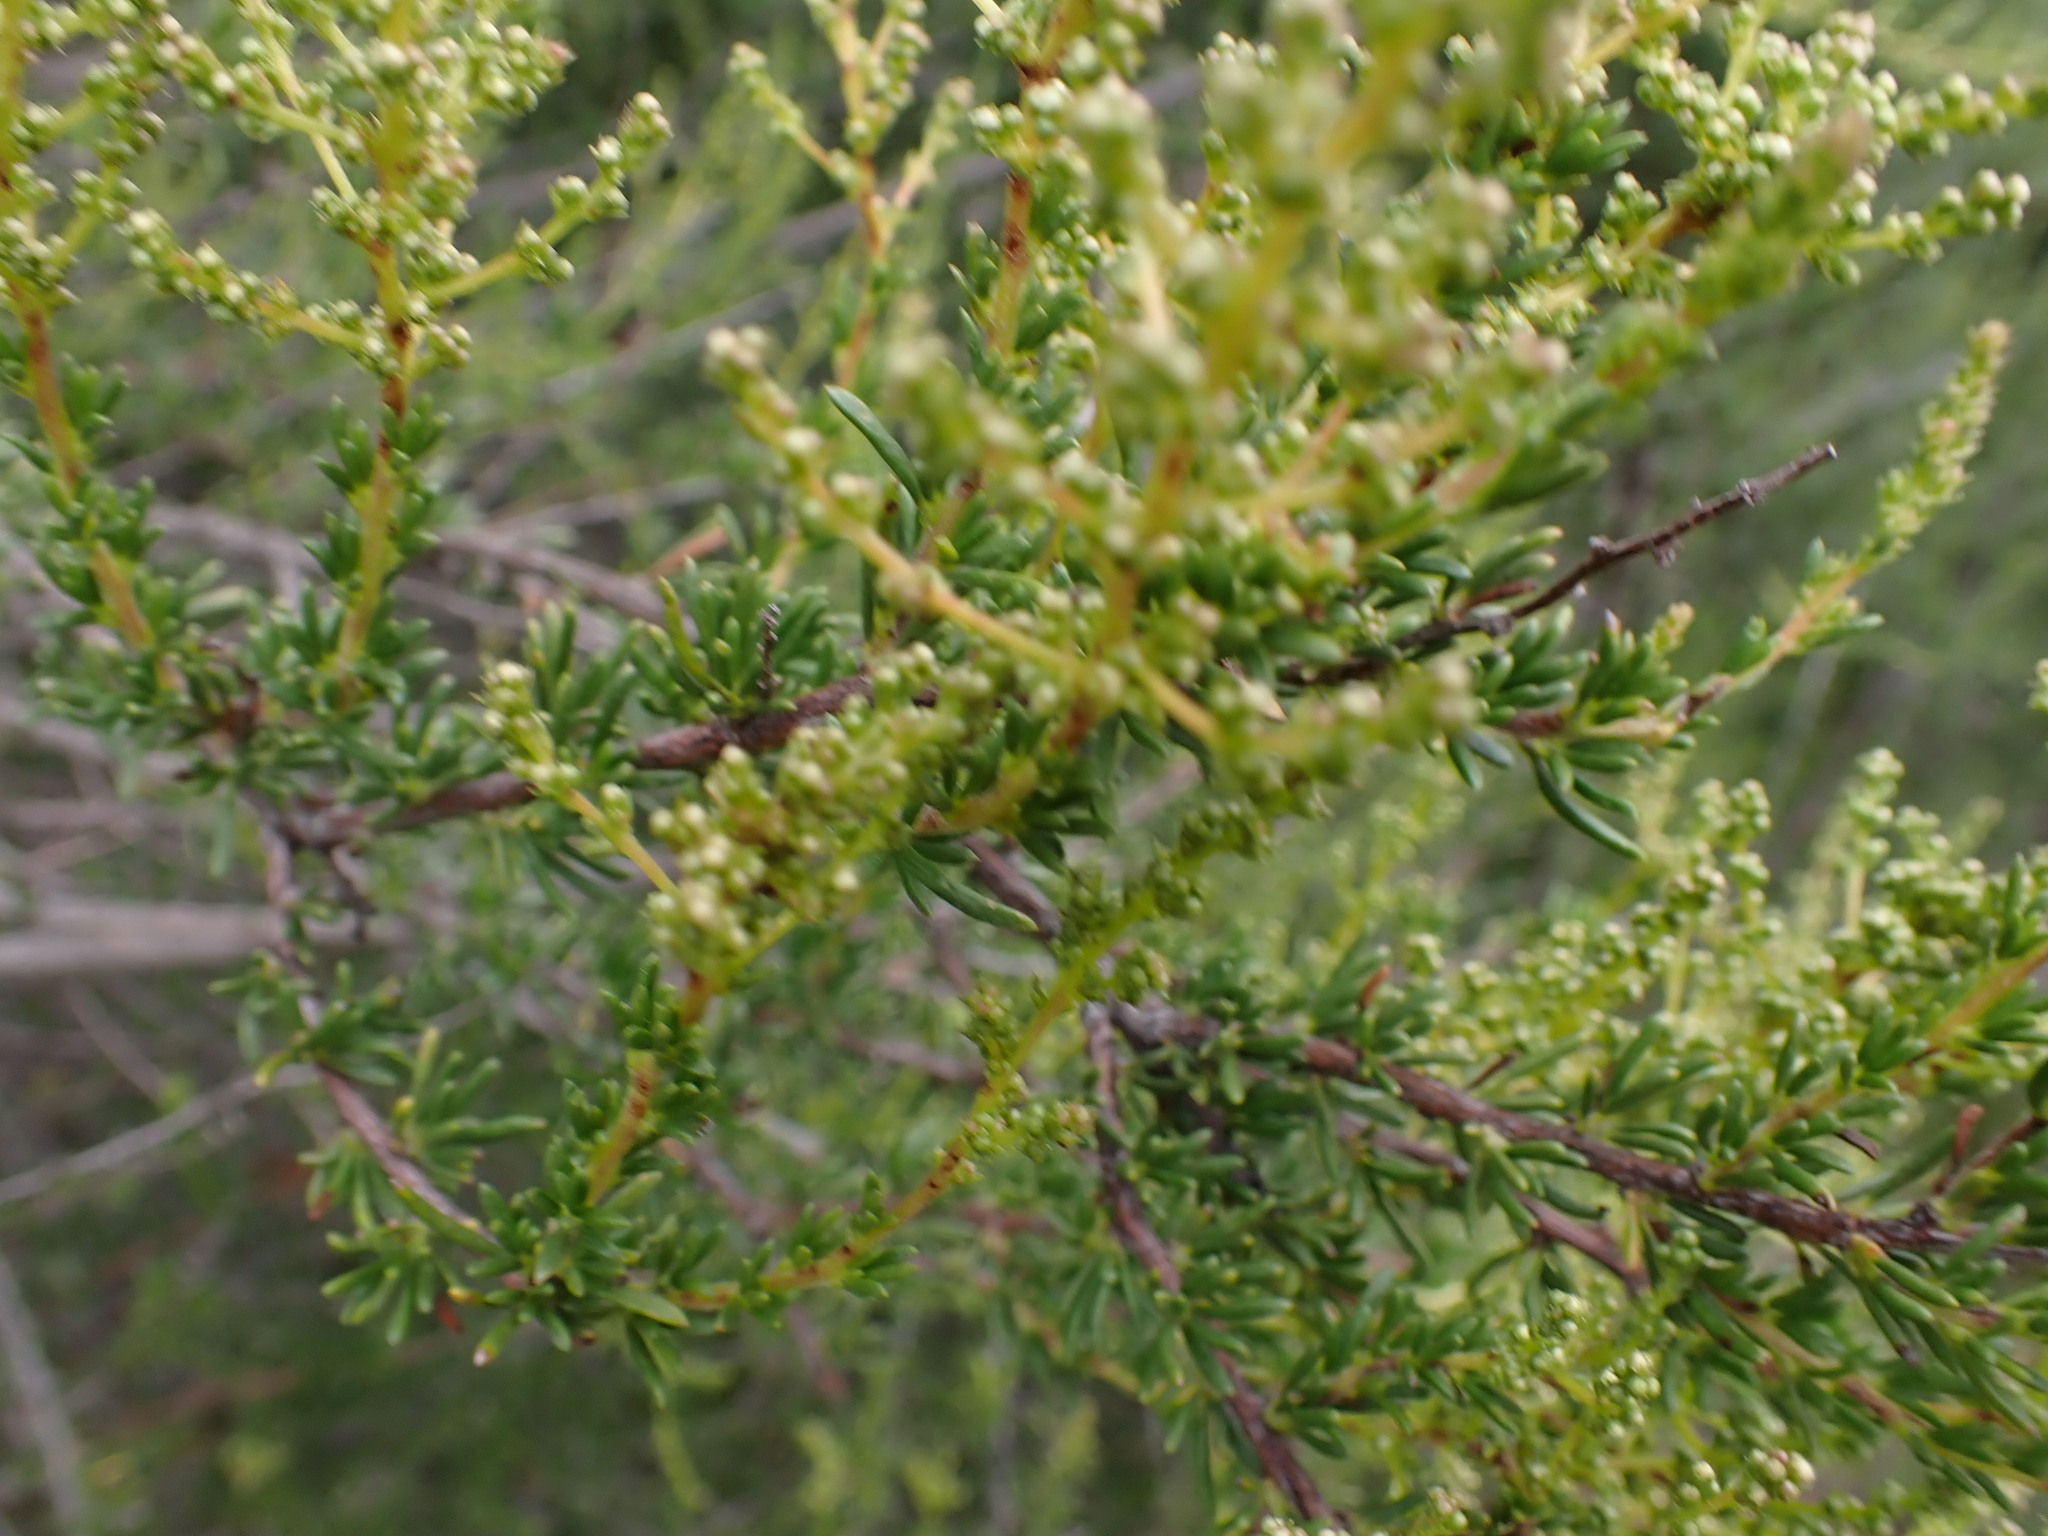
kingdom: Plantae
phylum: Tracheophyta
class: Magnoliopsida
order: Rosales
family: Rosaceae
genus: Adenostoma
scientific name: Adenostoma fasciculatum
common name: Chamise
